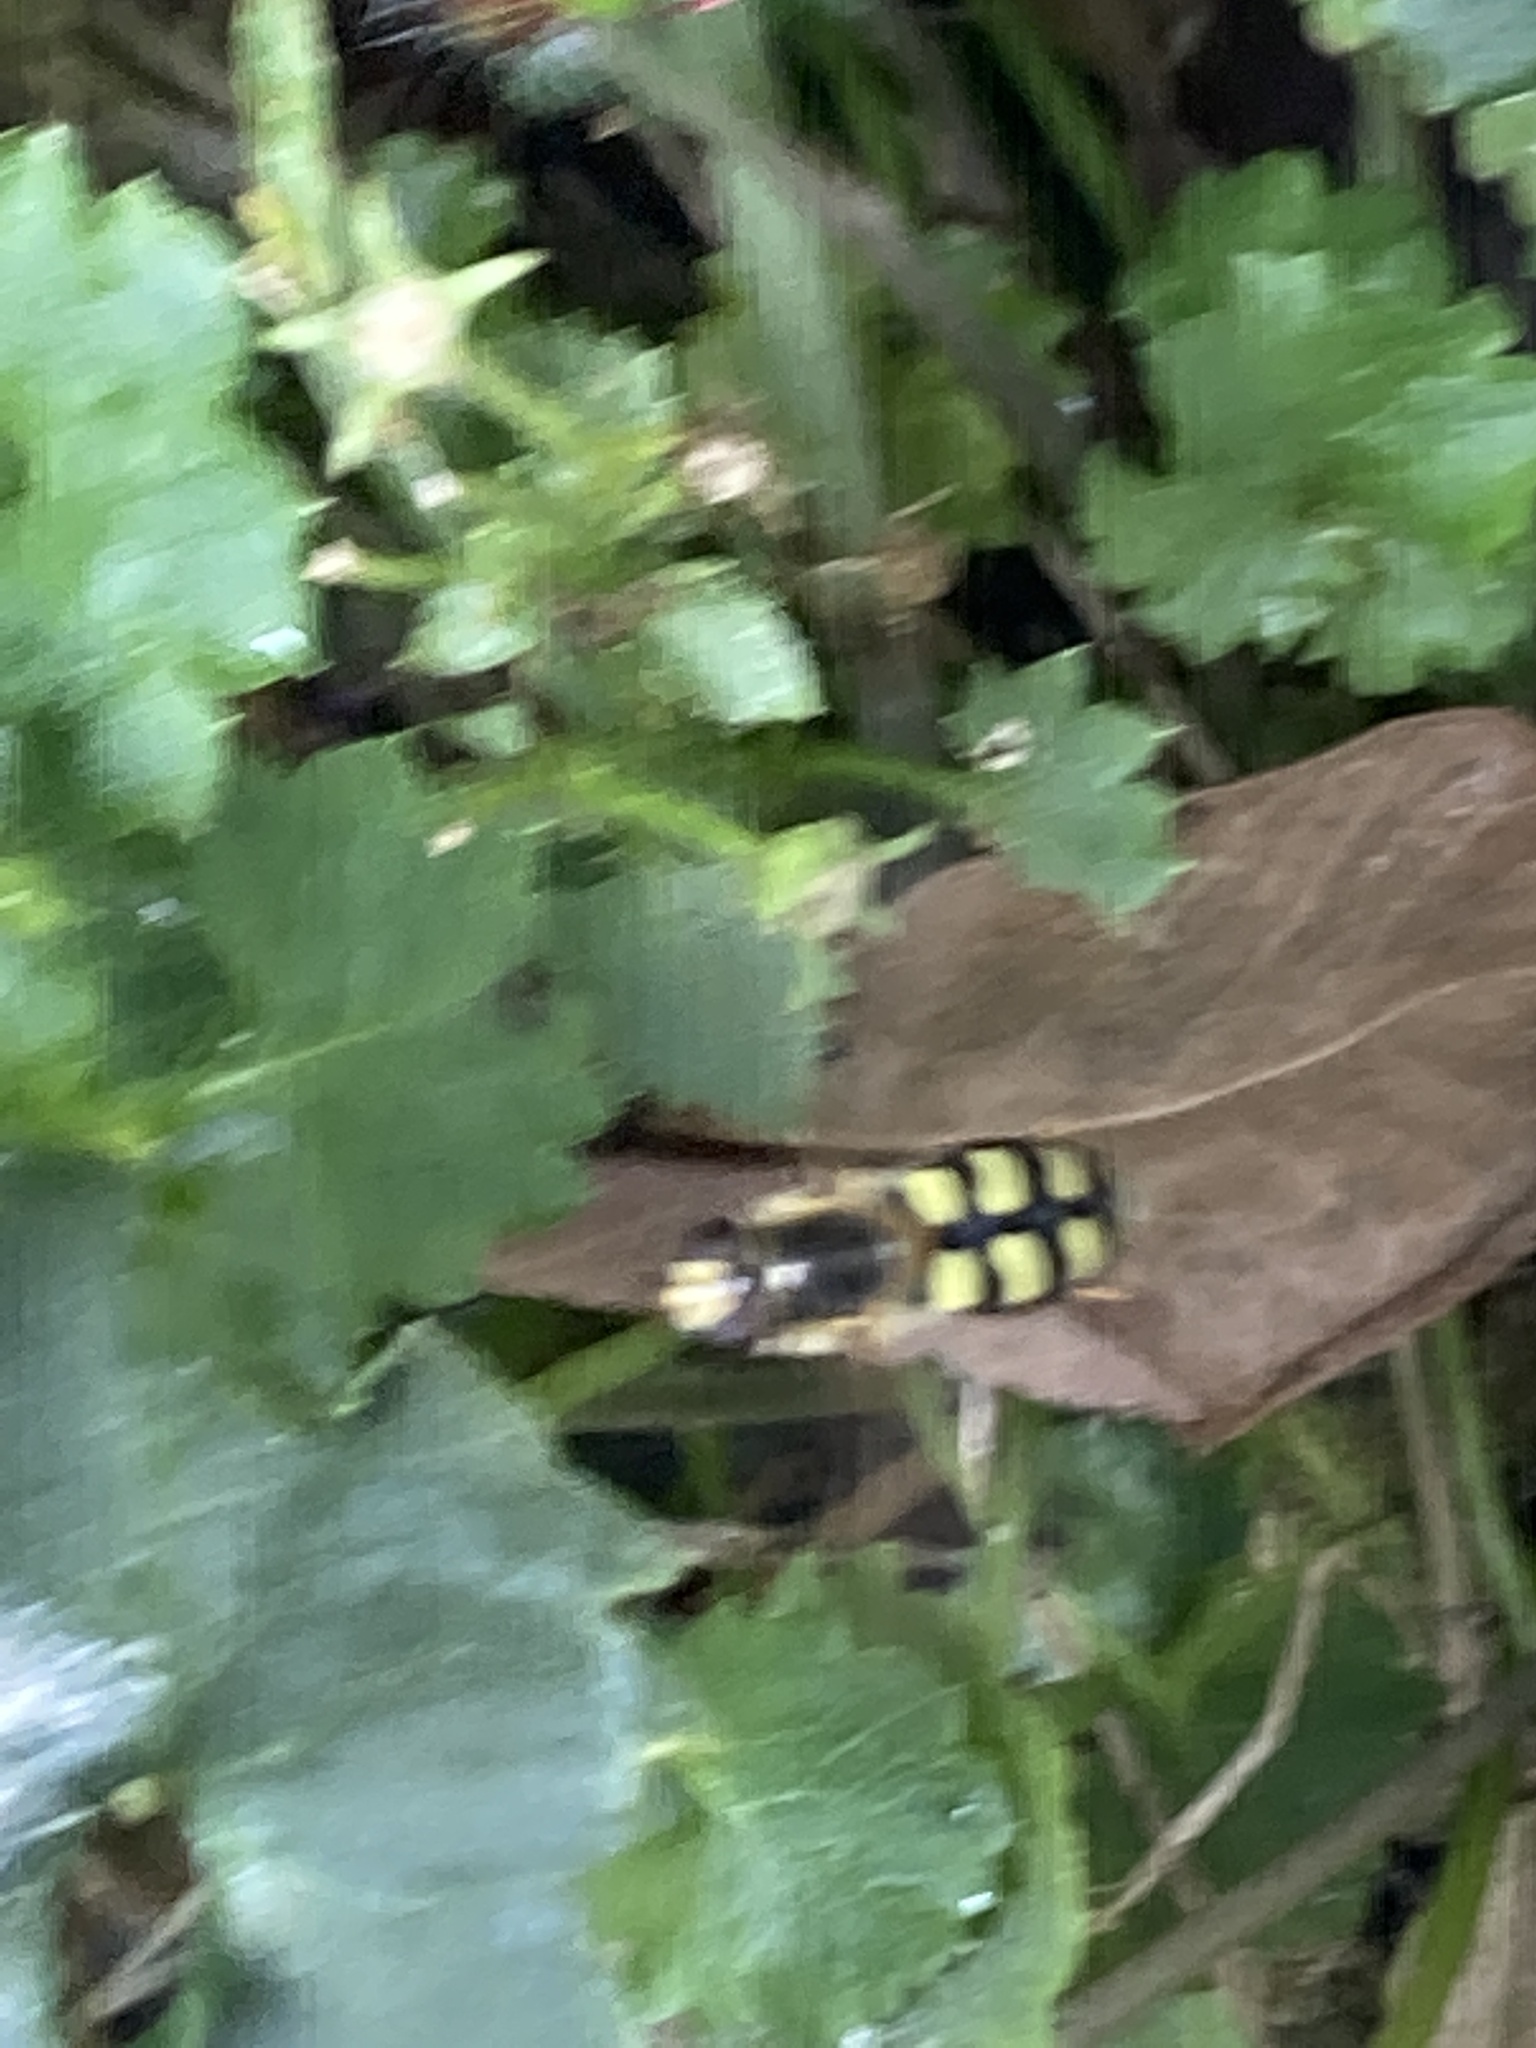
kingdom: Animalia
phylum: Arthropoda
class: Insecta
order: Diptera
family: Syrphidae
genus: Eupeodes
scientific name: Eupeodes
